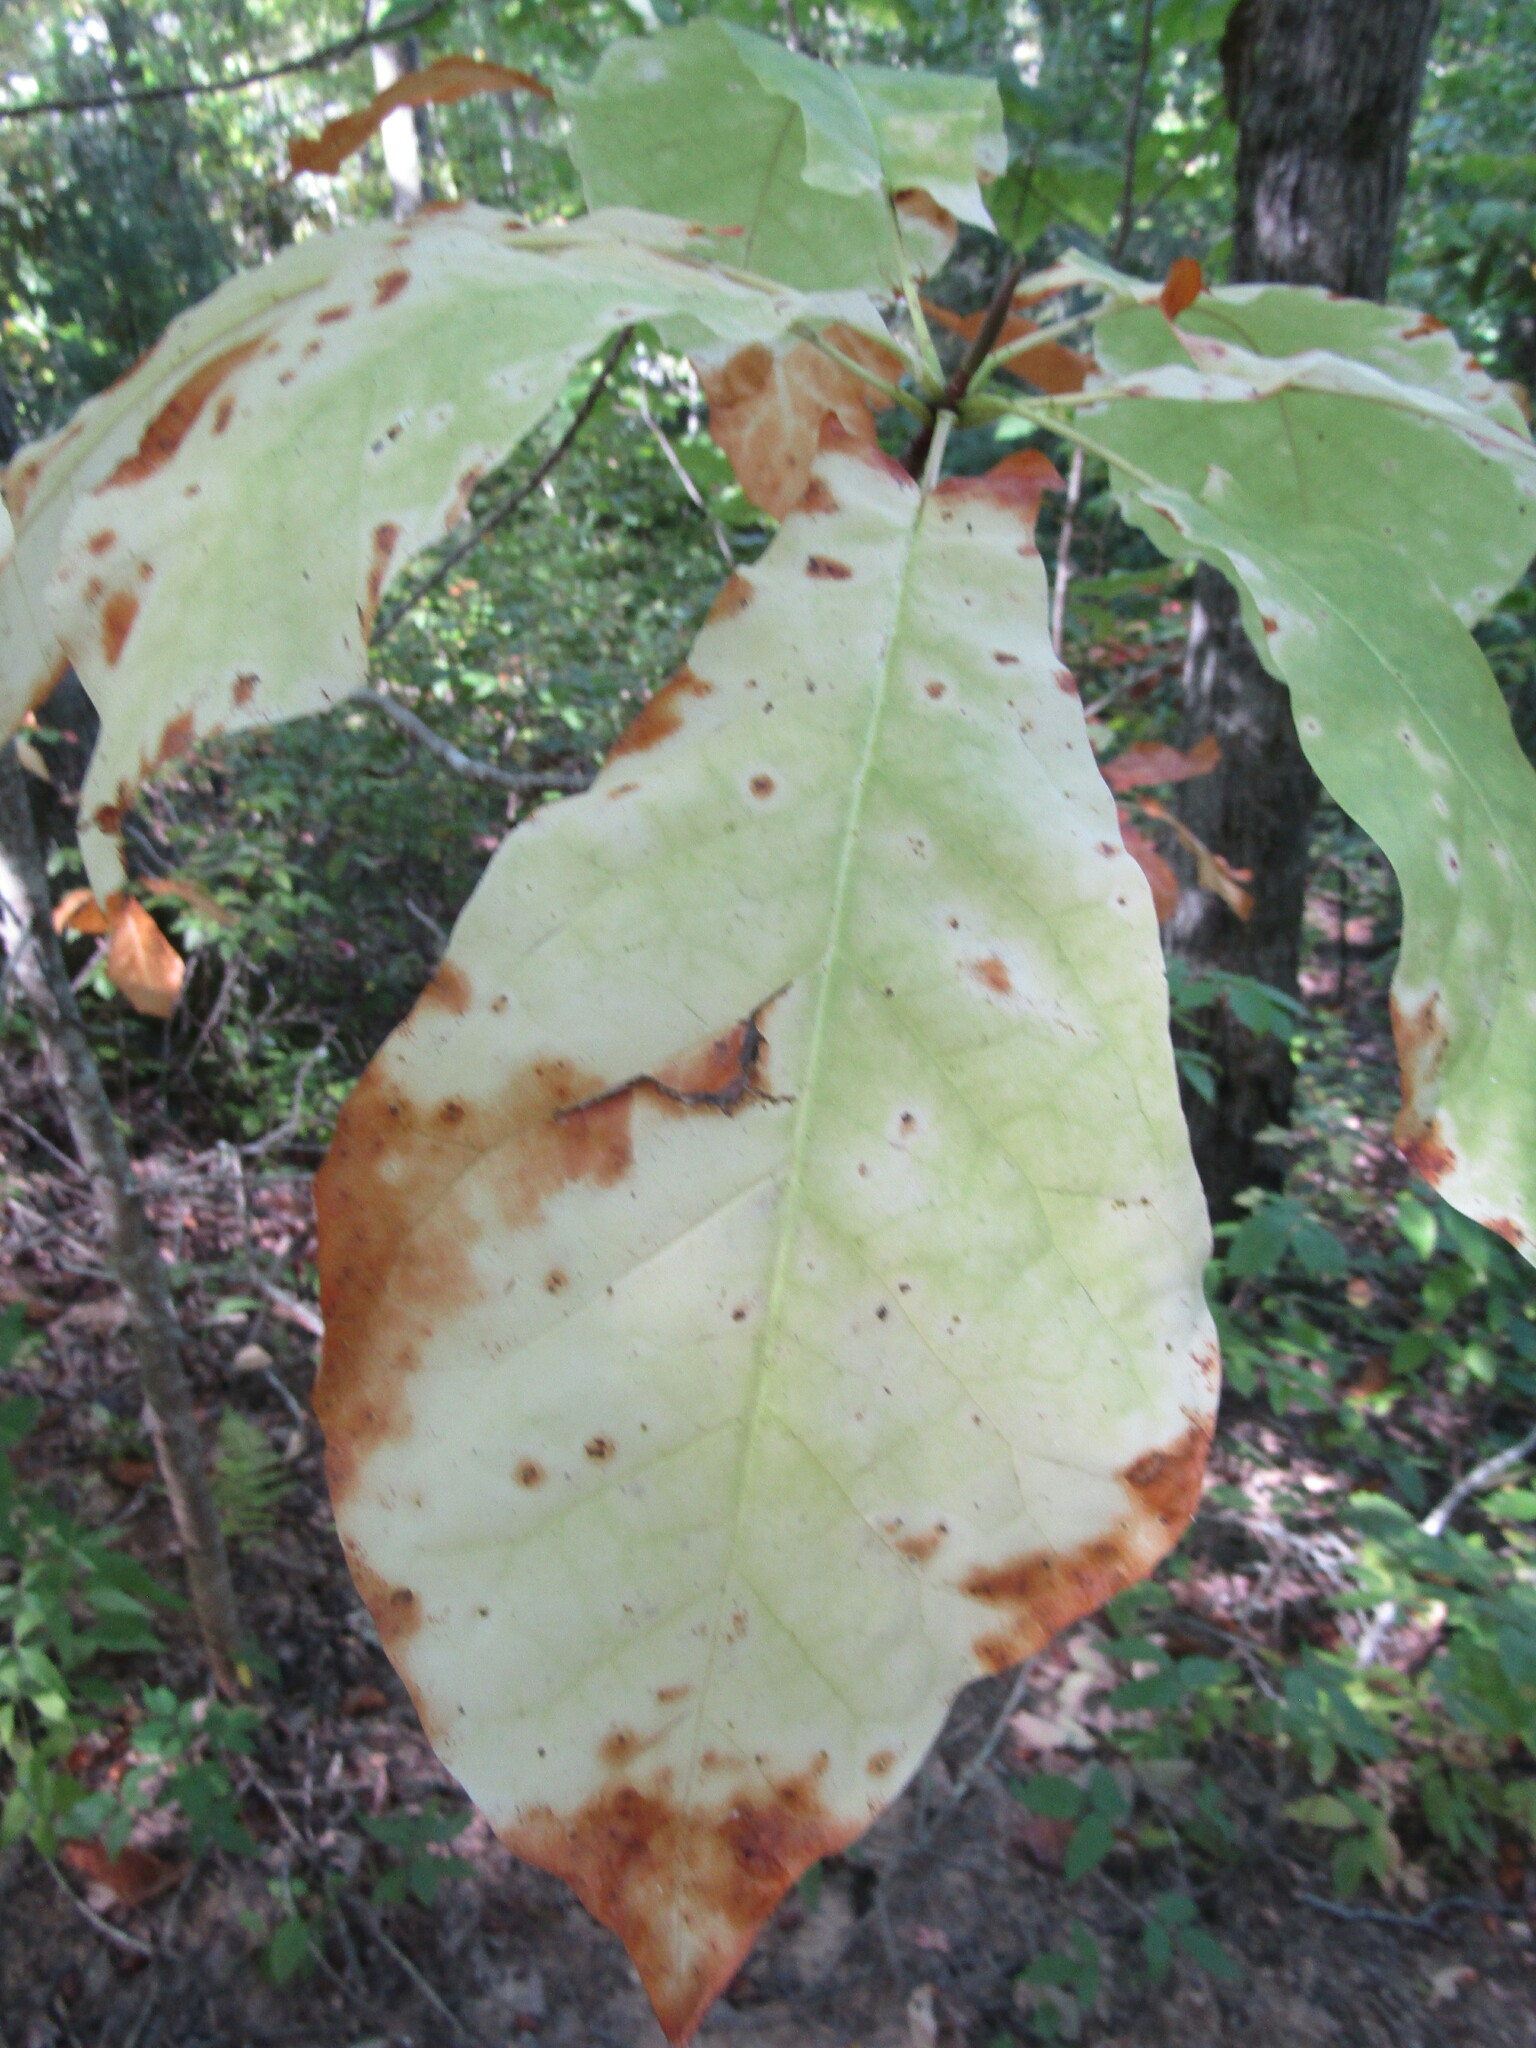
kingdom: Plantae
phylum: Tracheophyta
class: Magnoliopsida
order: Magnoliales
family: Magnoliaceae
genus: Magnolia
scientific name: Magnolia fraseri
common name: Fraser's magnolia
